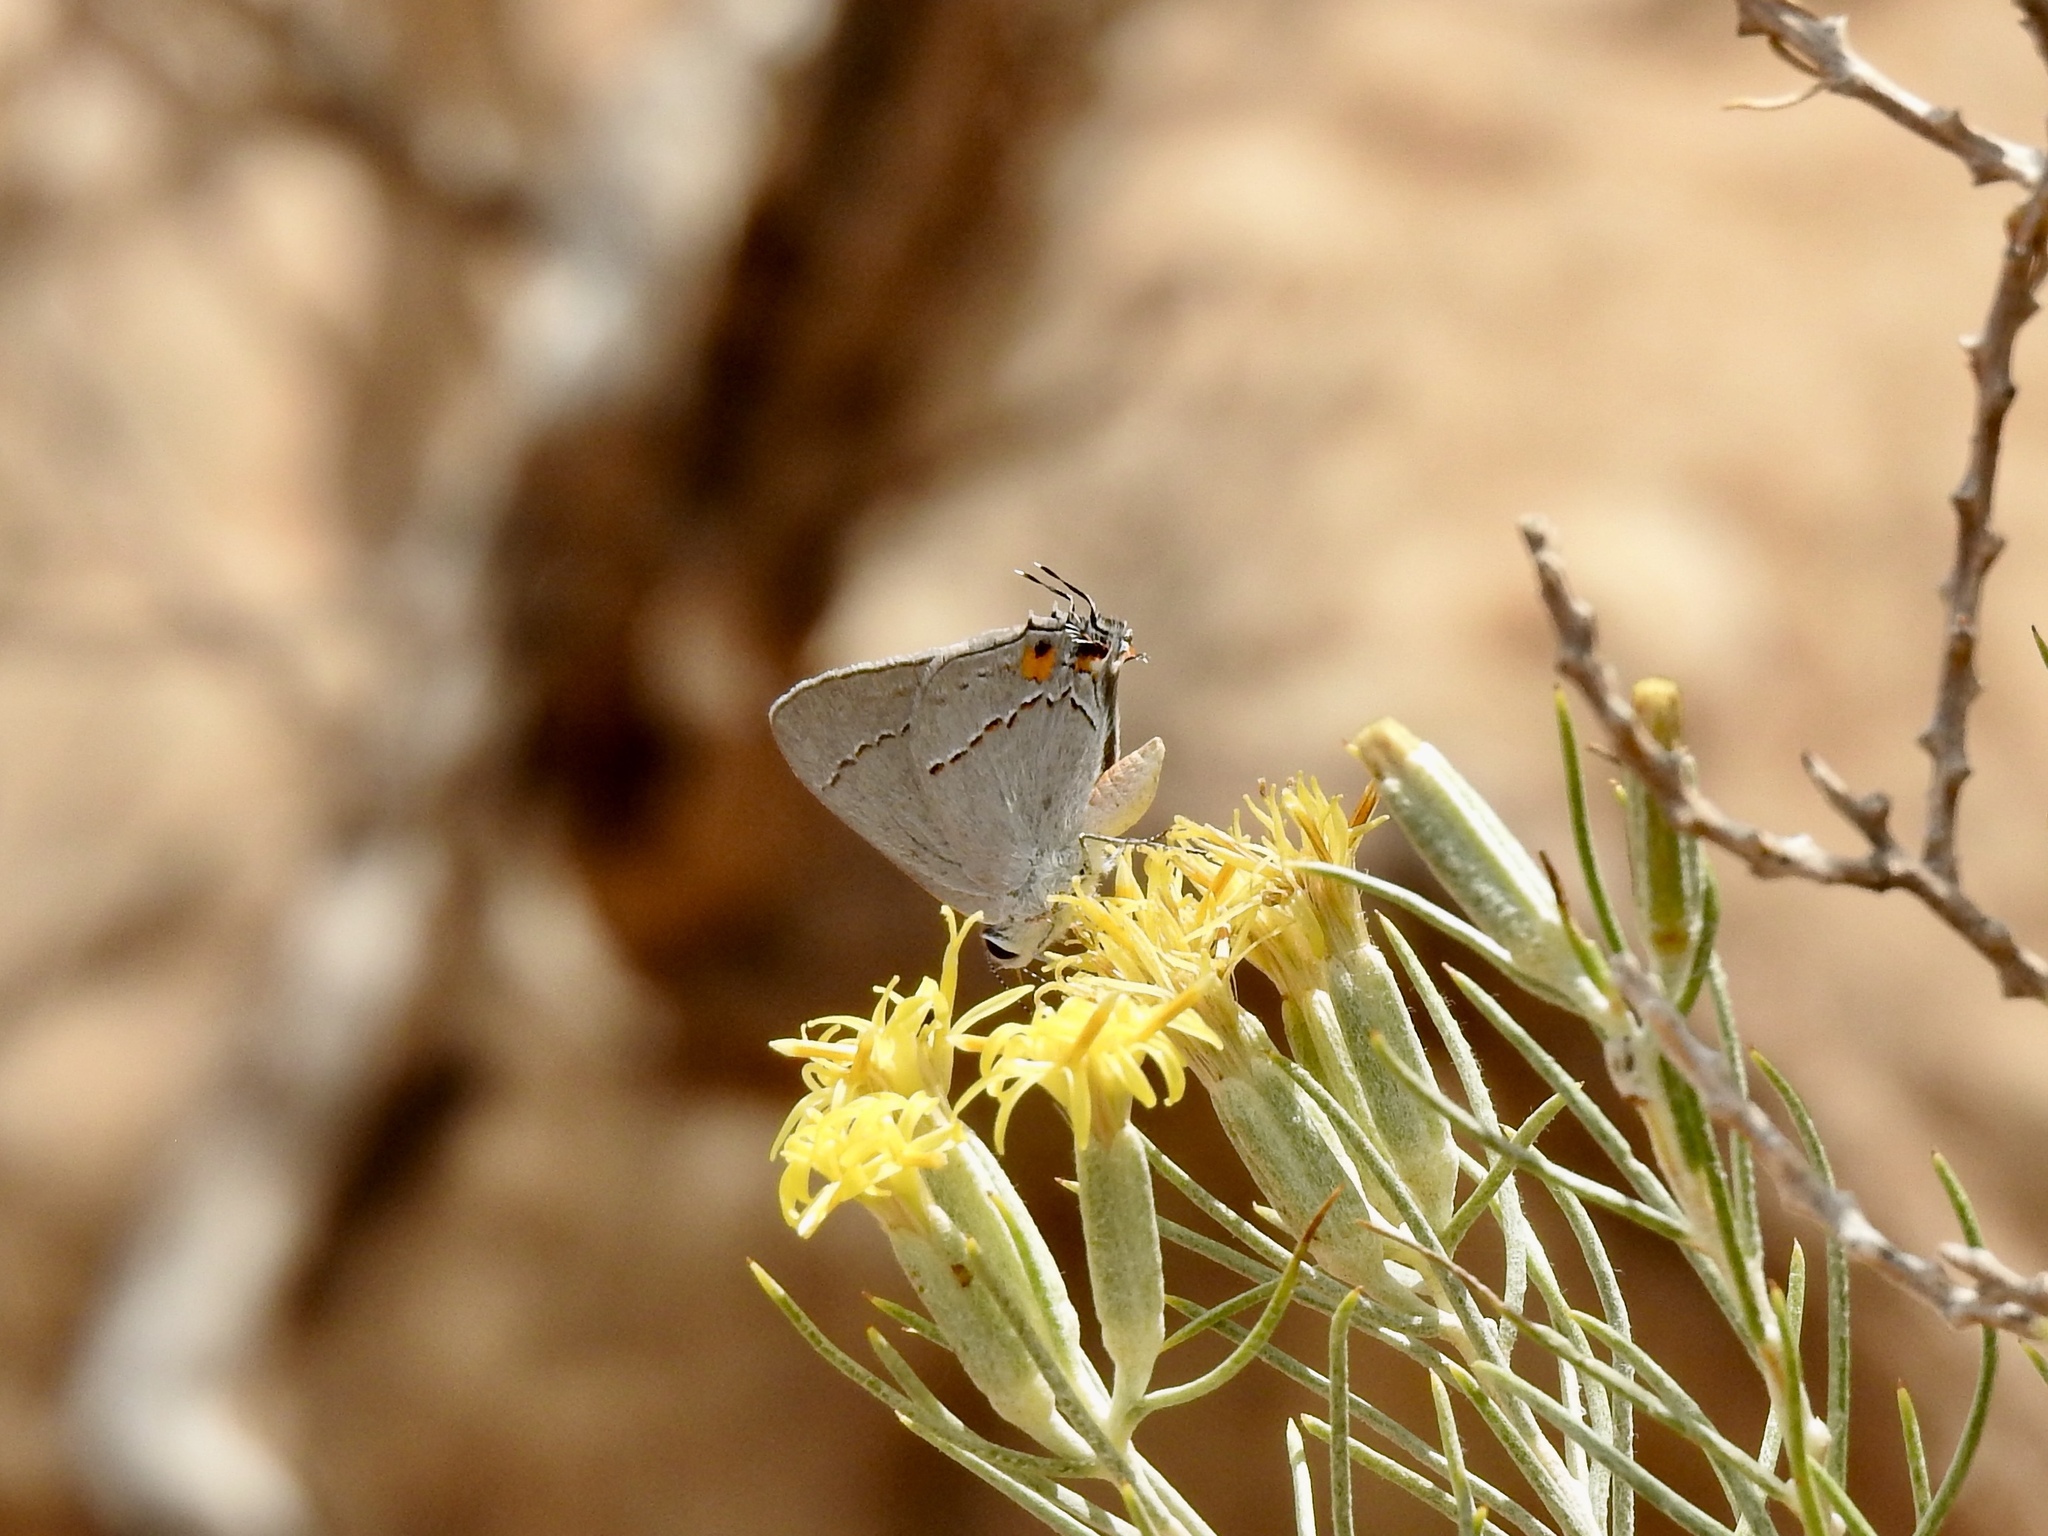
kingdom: Animalia
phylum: Arthropoda
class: Insecta
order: Lepidoptera
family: Lycaenidae
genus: Strymon
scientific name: Strymon melinus
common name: Gray hairstreak
